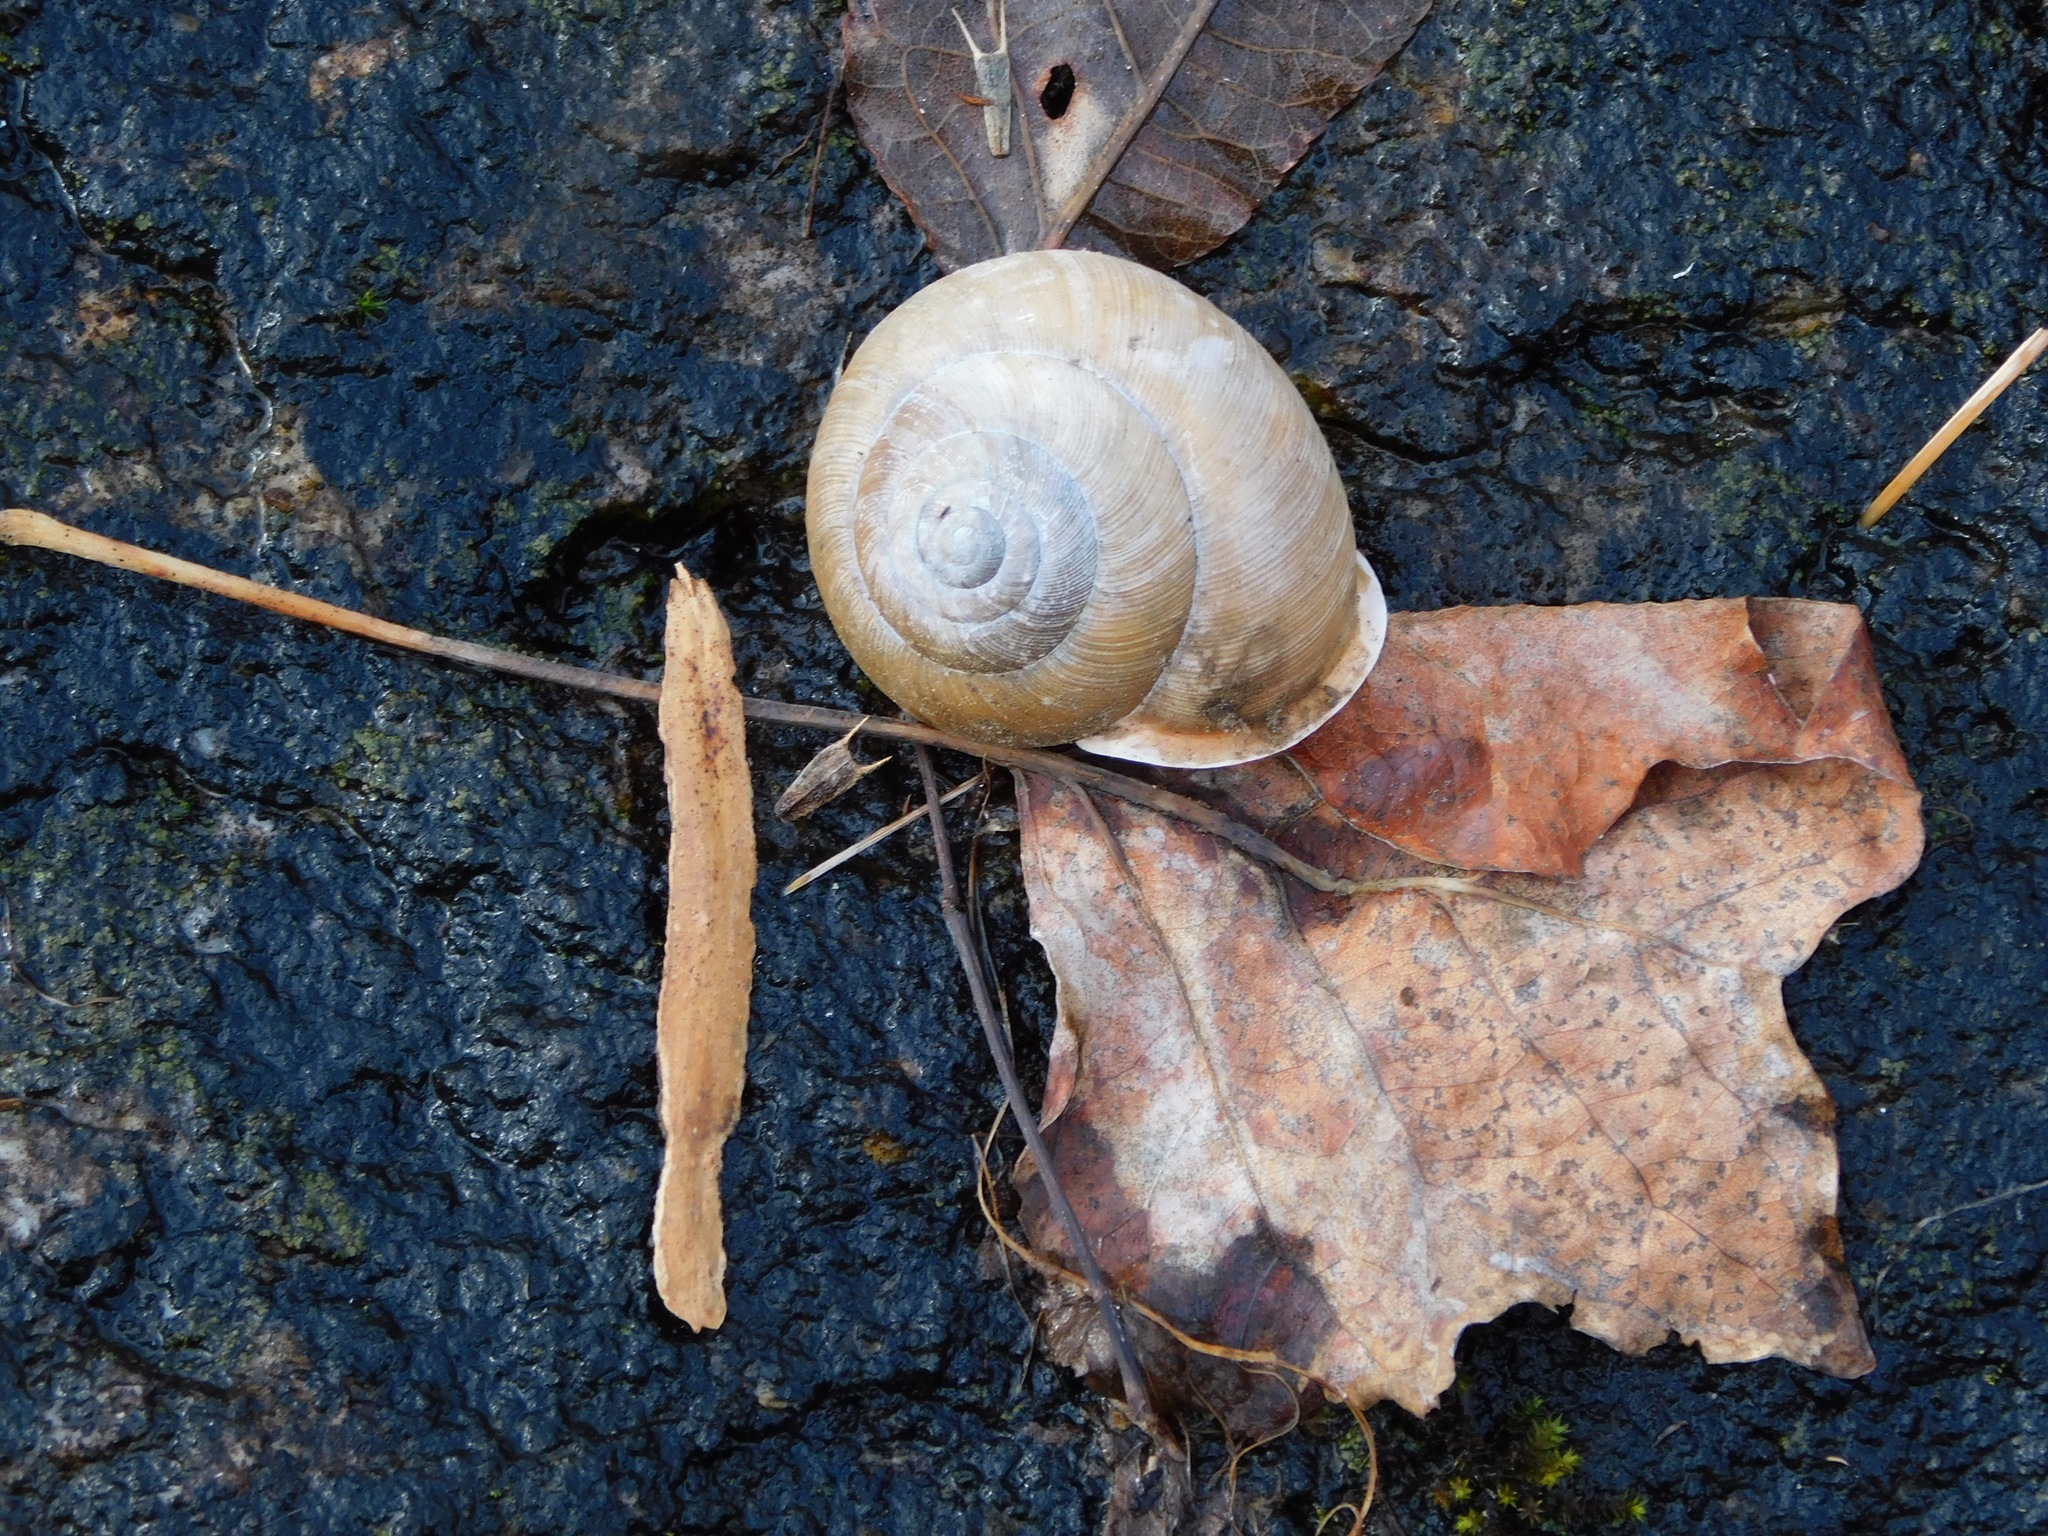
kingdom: Animalia
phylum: Mollusca
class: Gastropoda
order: Stylommatophora
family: Polygyridae
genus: Neohelix
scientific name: Neohelix major
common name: Southeastern whitelip
